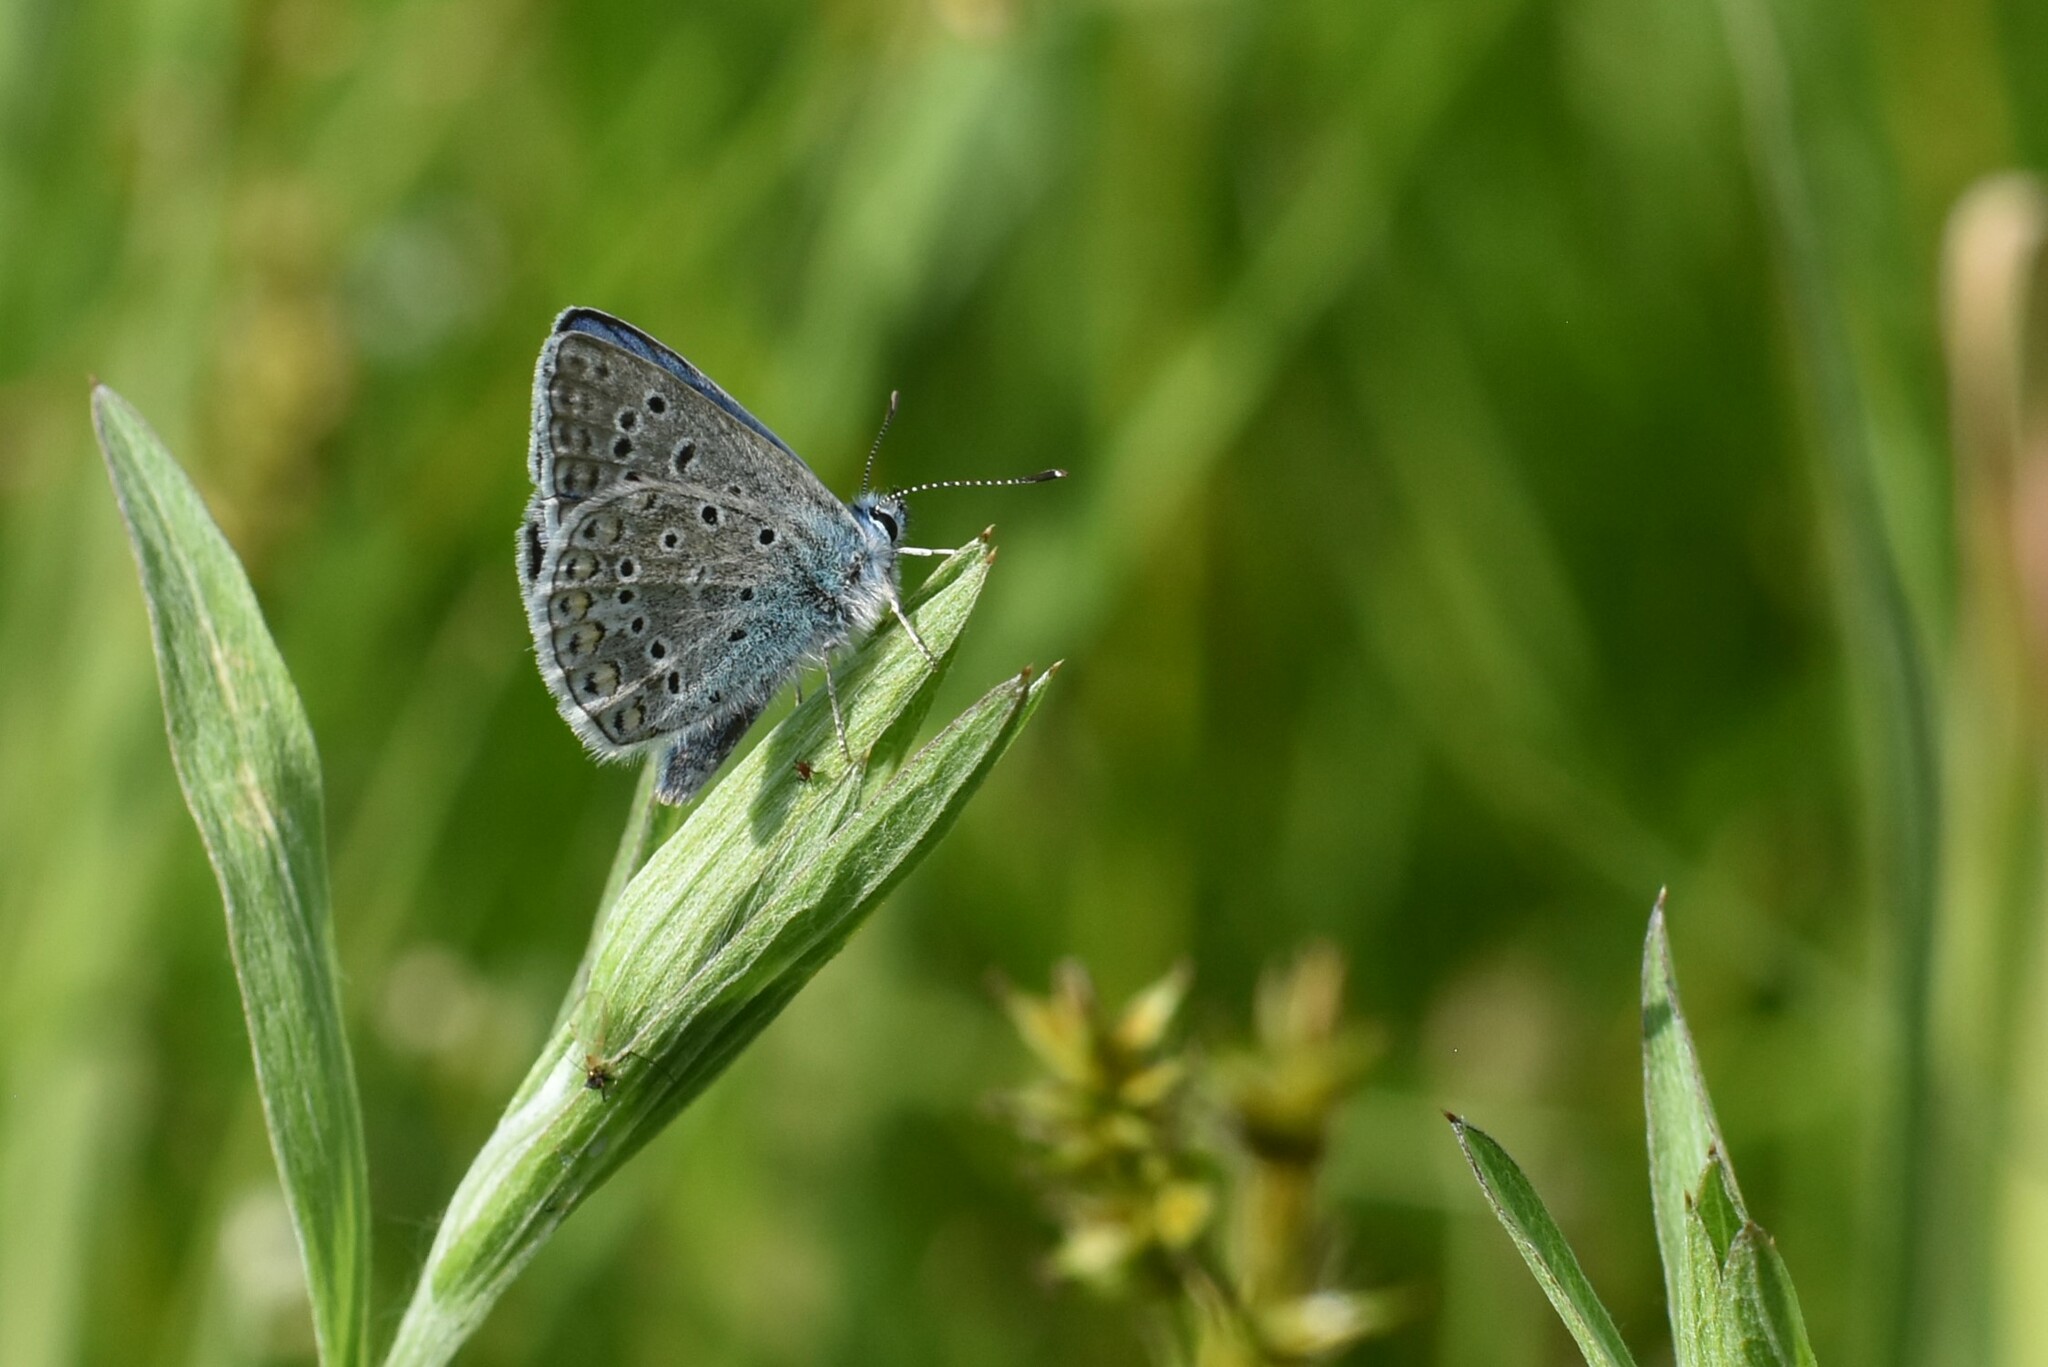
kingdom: Animalia
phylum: Arthropoda
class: Insecta
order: Lepidoptera
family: Lycaenidae
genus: Polyommatus
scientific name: Polyommatus icarus
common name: Common blue
